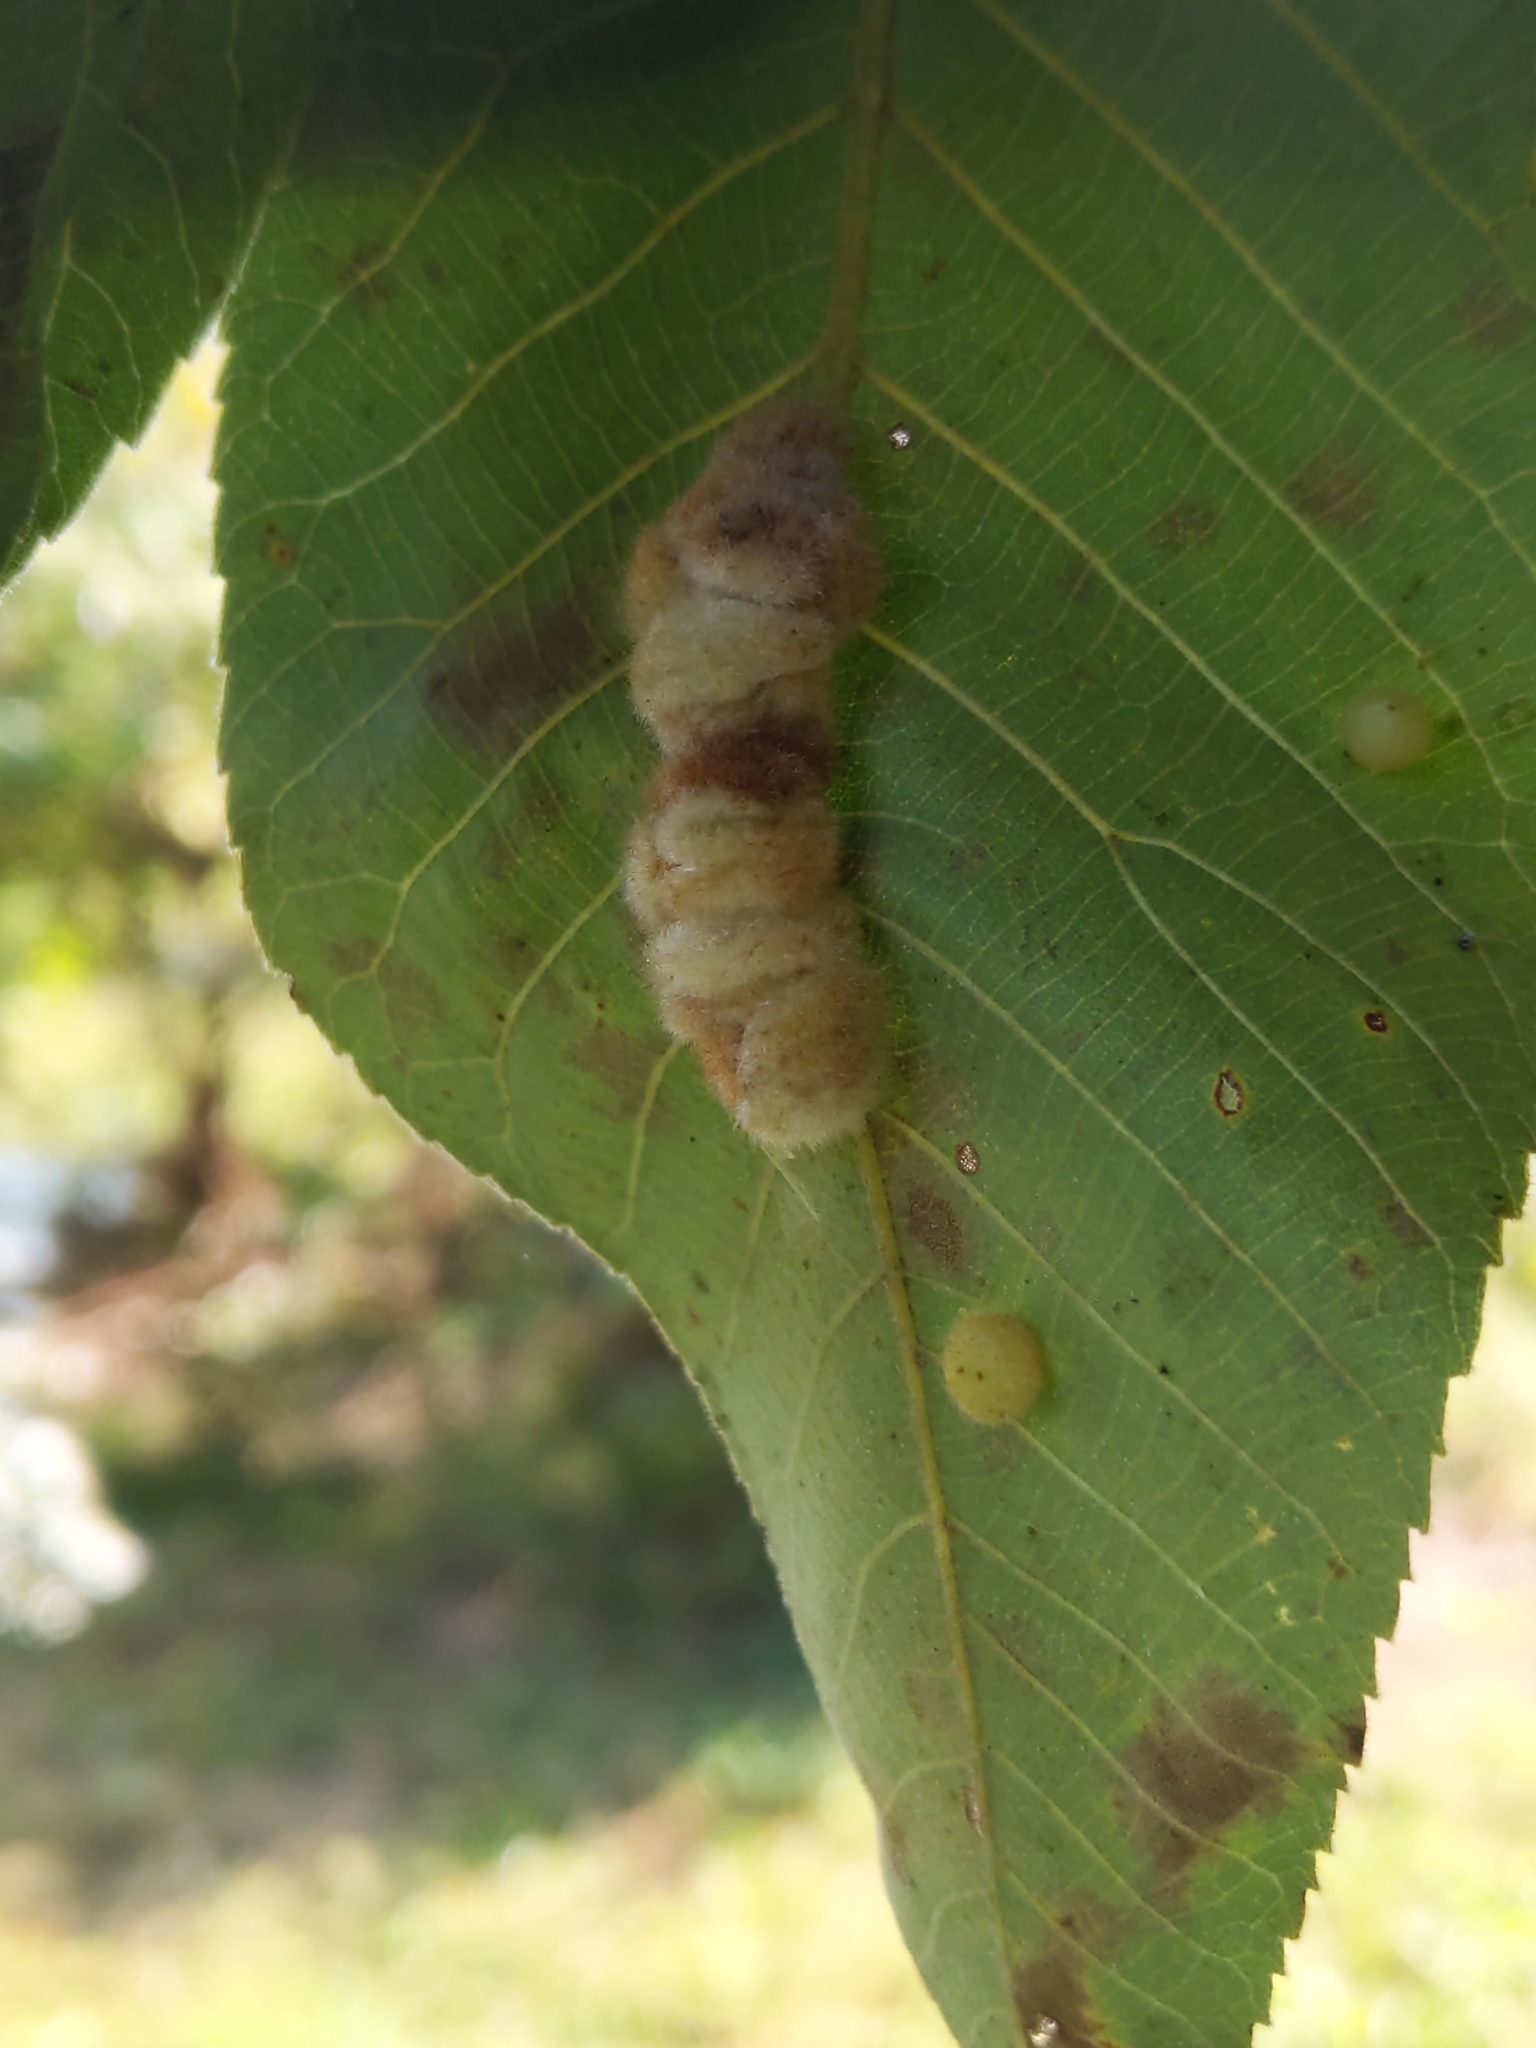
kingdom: Animalia
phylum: Arthropoda
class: Insecta
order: Diptera
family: Cecidomyiidae
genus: Caryomyia
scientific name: Caryomyia aggregata
